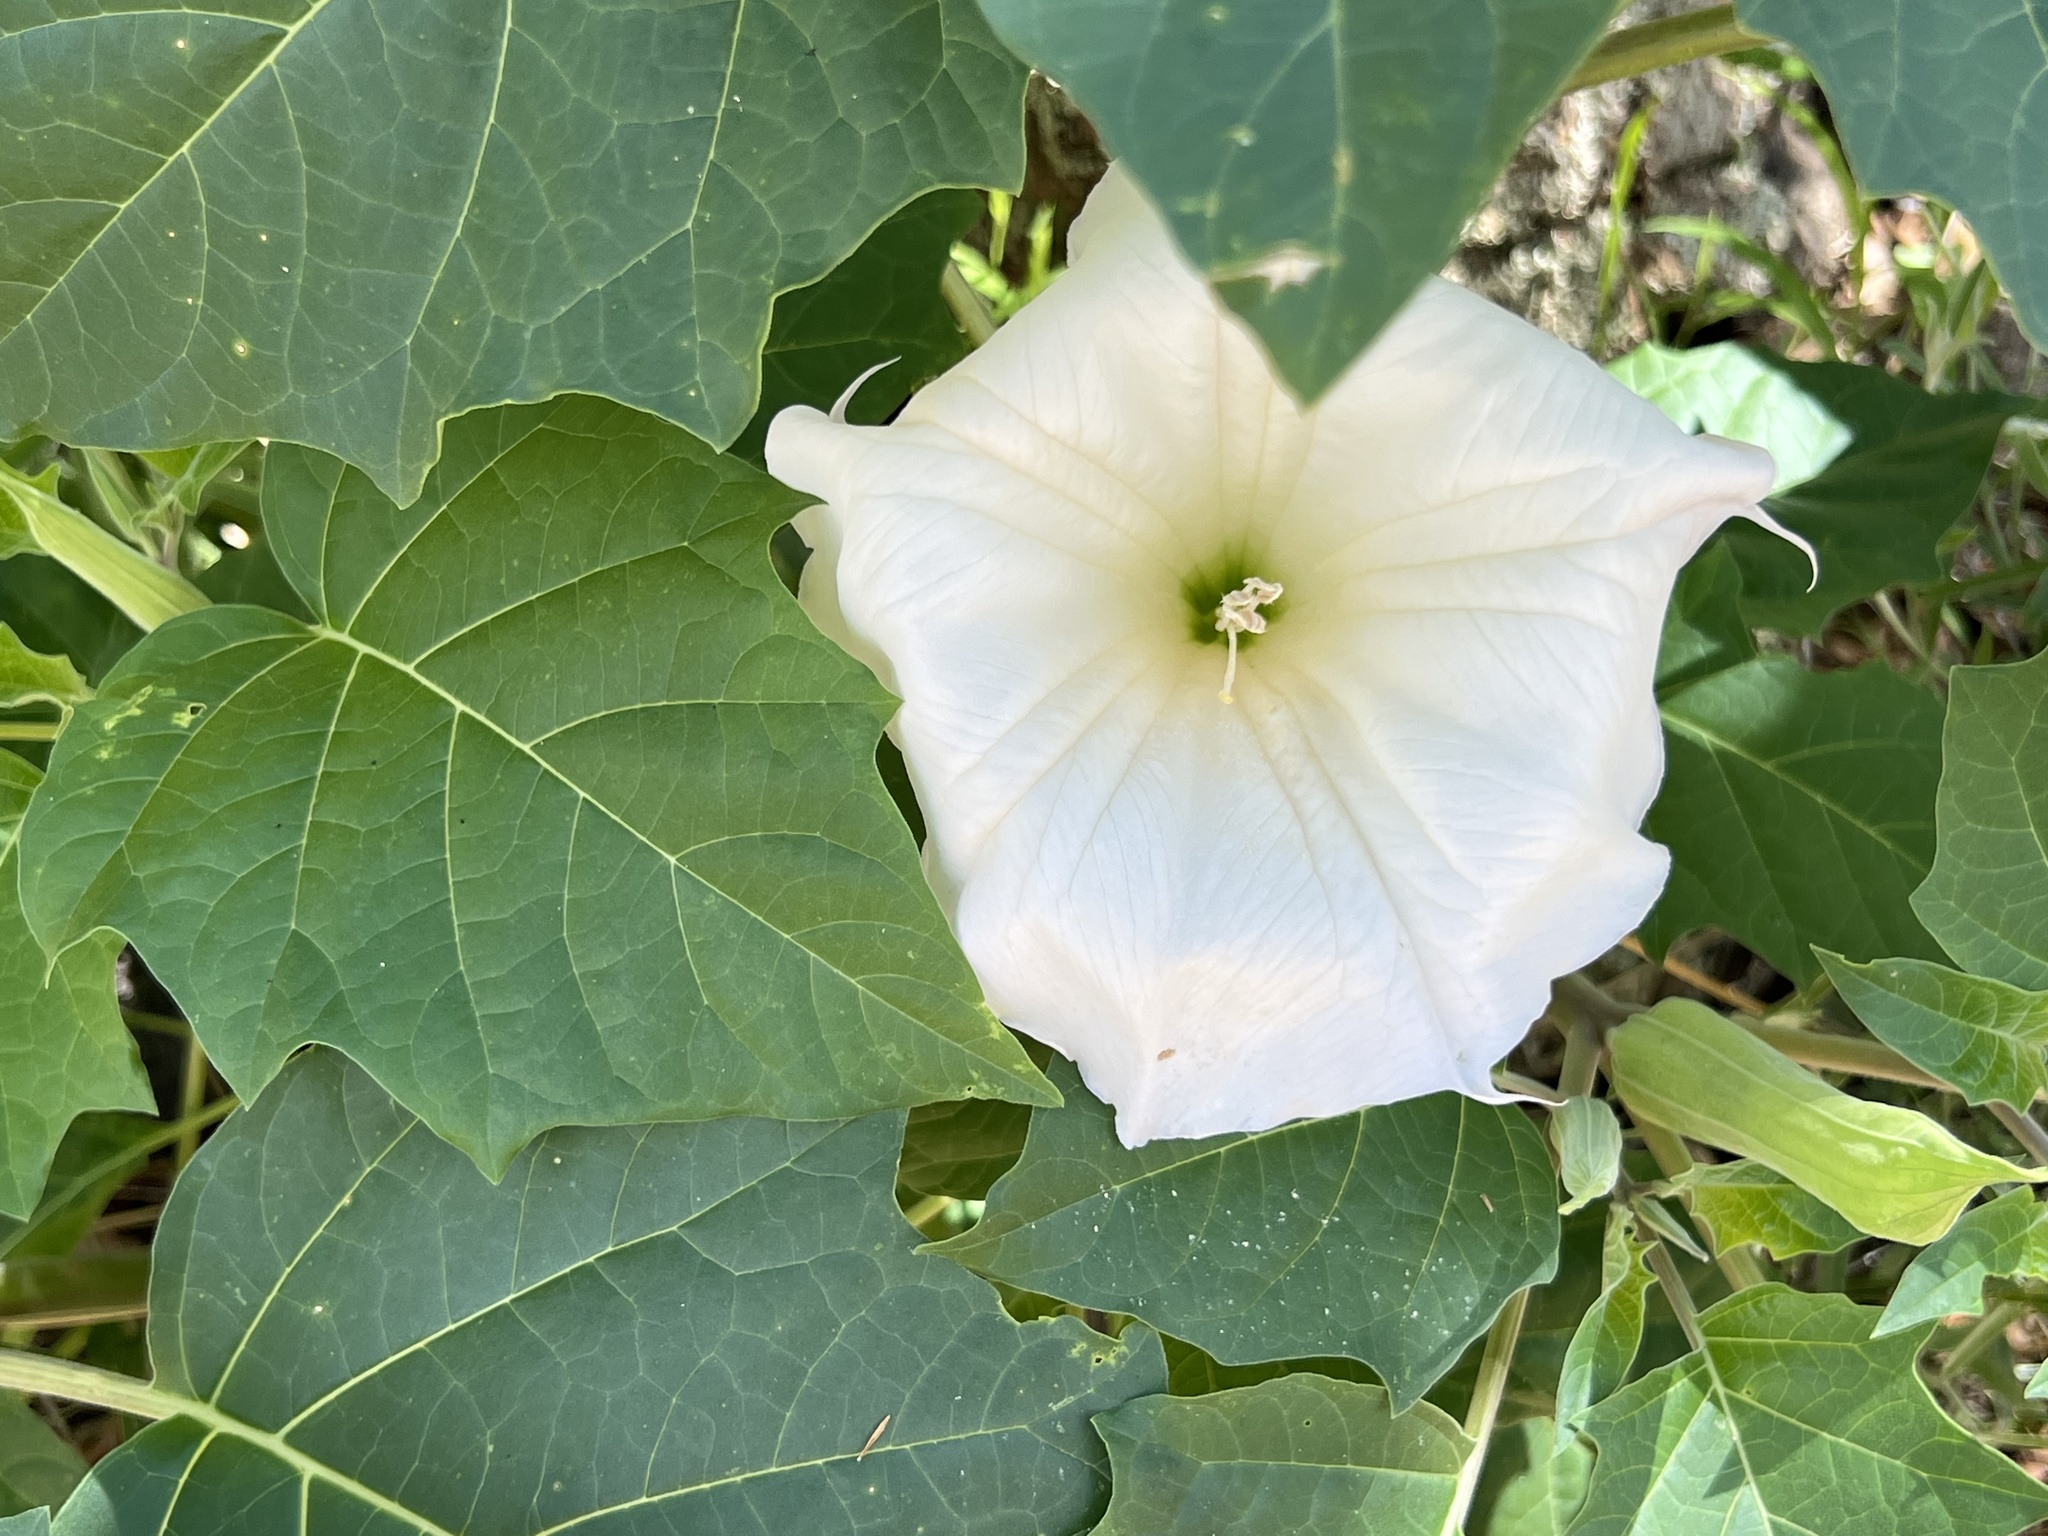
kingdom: Plantae
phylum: Tracheophyta
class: Magnoliopsida
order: Solanales
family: Solanaceae
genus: Datura
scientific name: Datura wrightii
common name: Sacred thorn-apple
